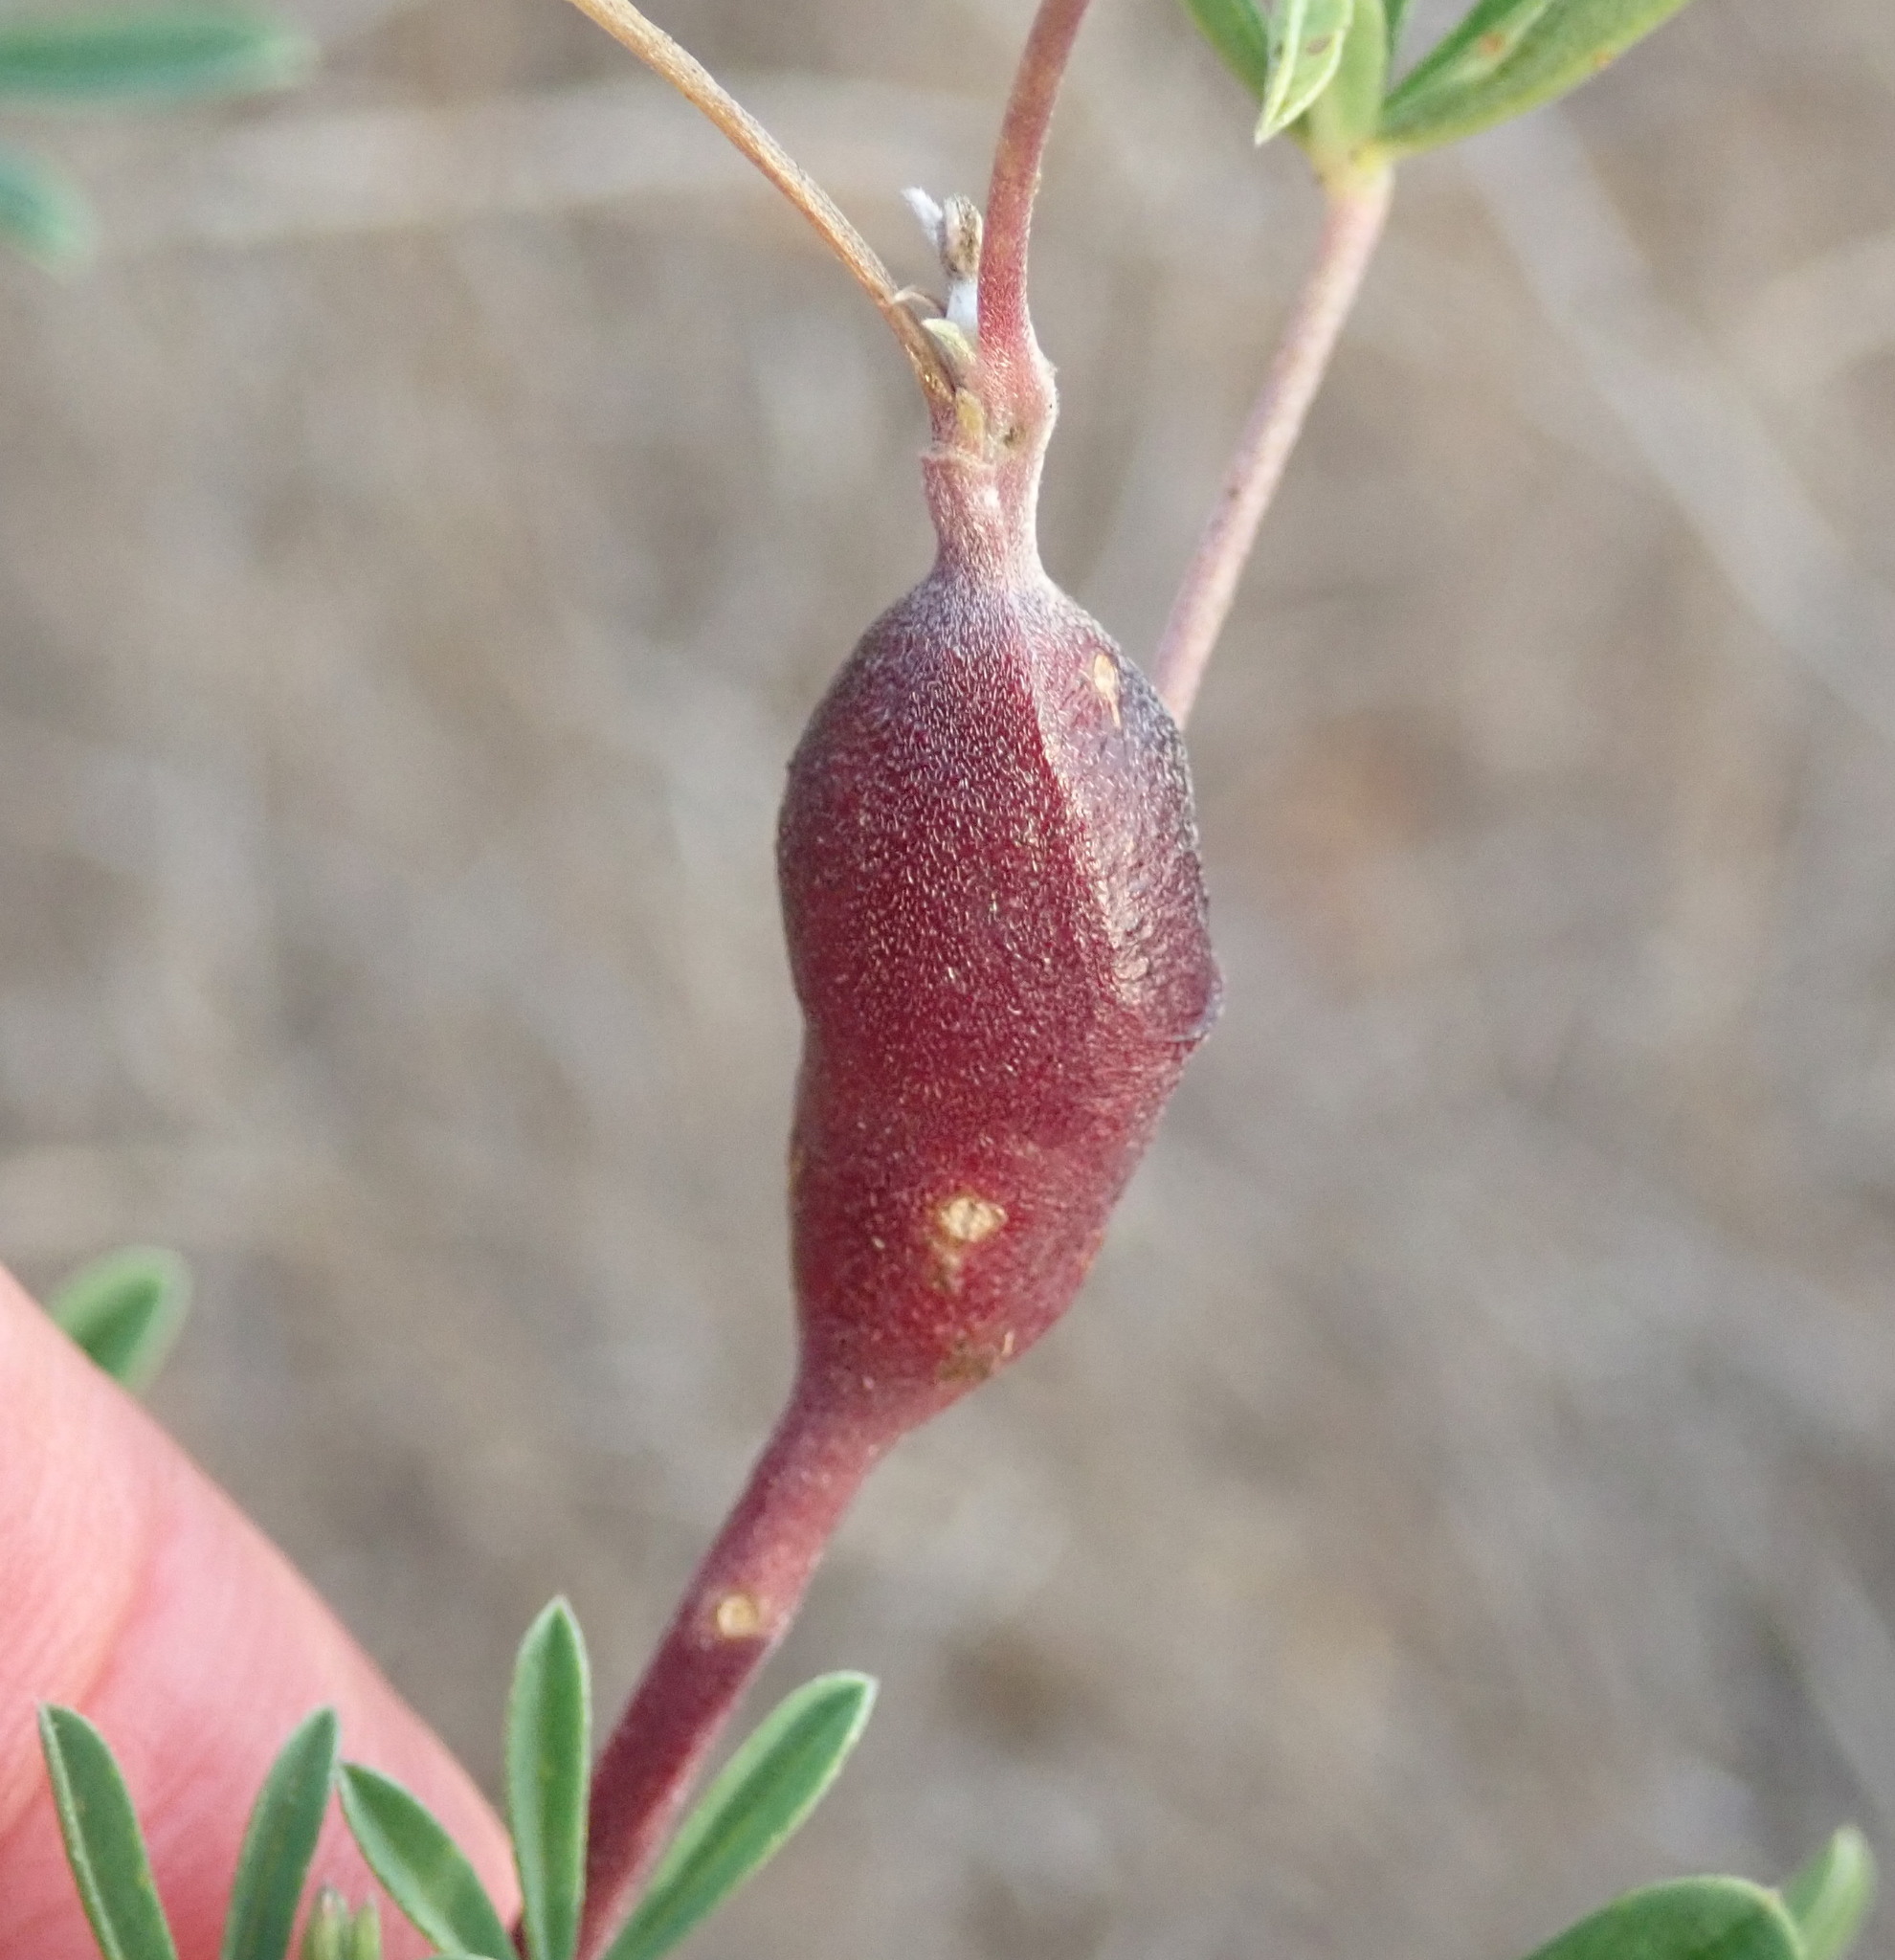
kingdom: Animalia
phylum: Arthropoda
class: Insecta
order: Diptera
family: Cecidomyiidae
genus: Neolasioptera
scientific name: Neolasioptera lupini
